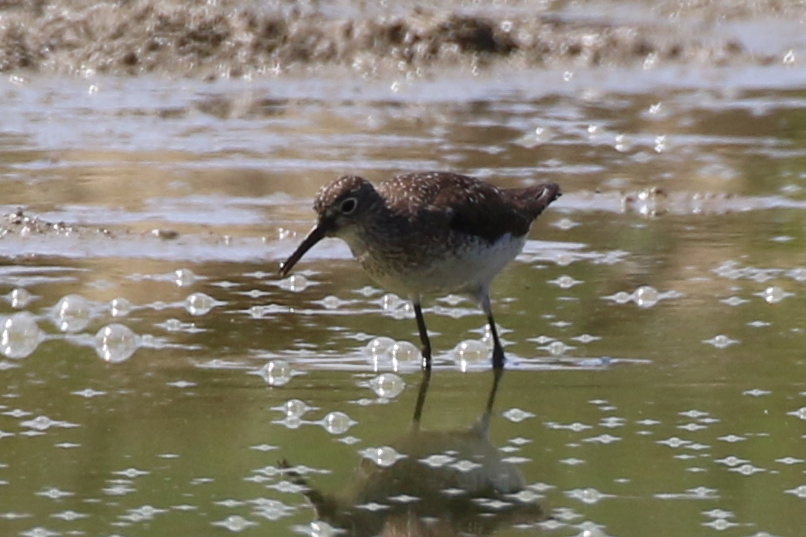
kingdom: Animalia
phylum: Chordata
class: Aves
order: Charadriiformes
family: Scolopacidae
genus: Tringa
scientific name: Tringa solitaria
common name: Solitary sandpiper
